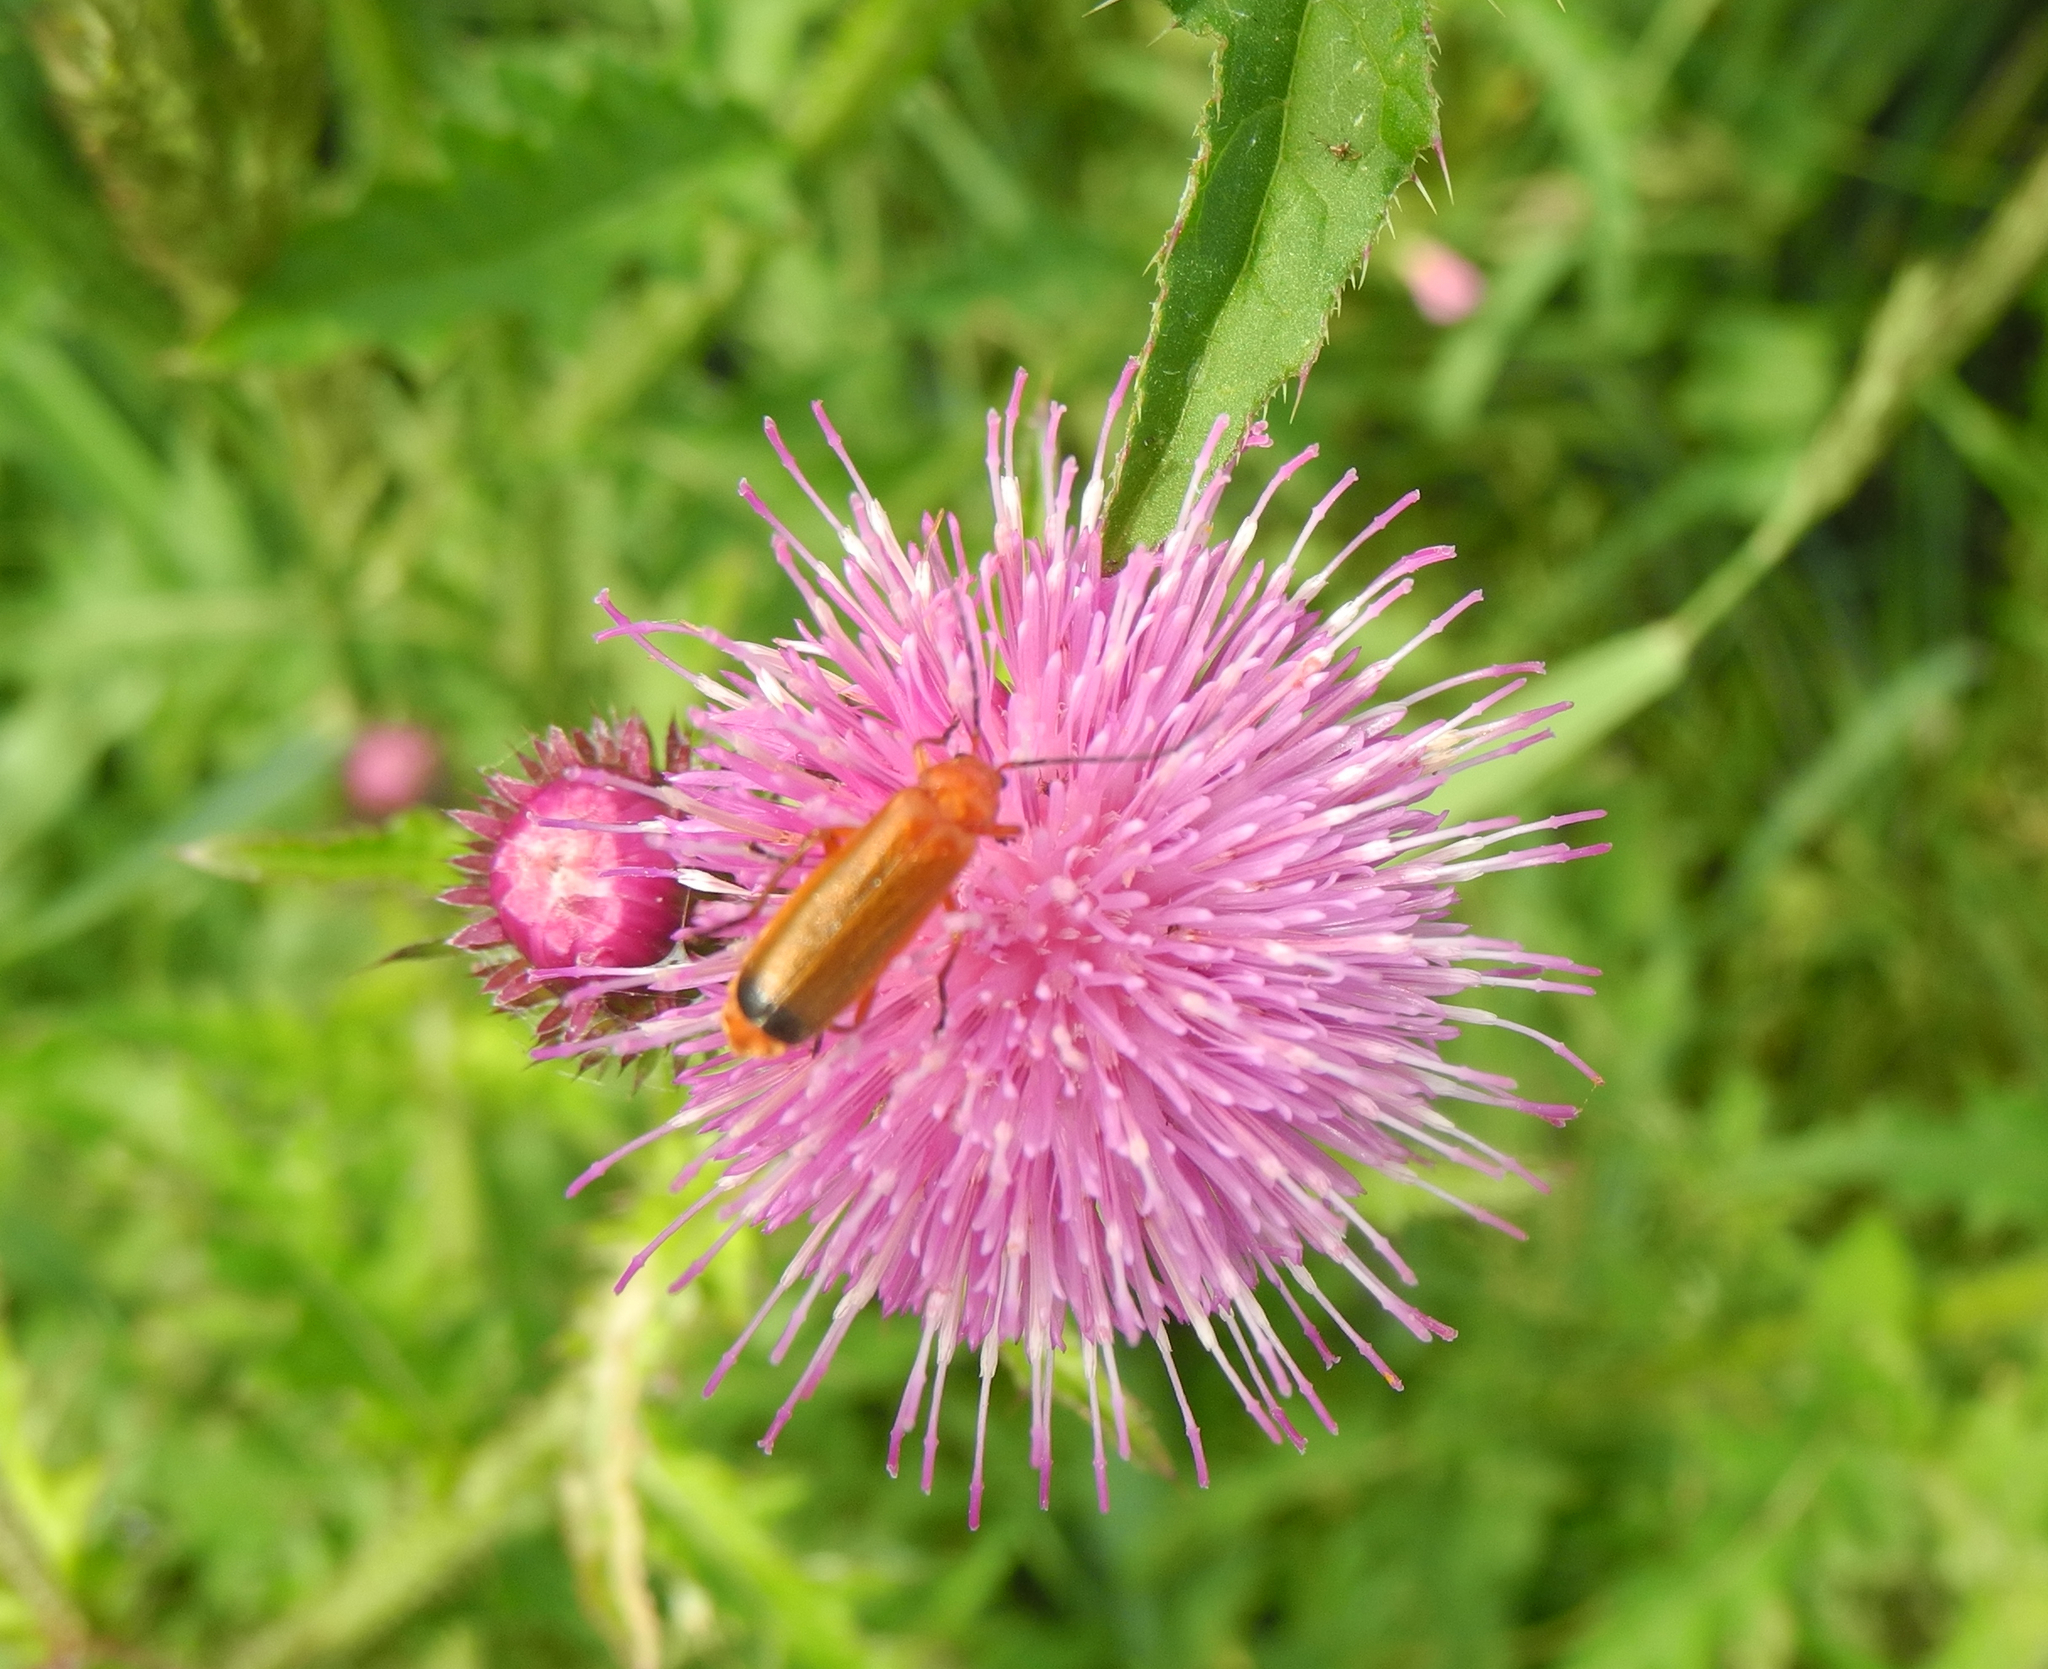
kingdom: Animalia
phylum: Arthropoda
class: Insecta
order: Coleoptera
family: Cantharidae
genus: Rhagonycha
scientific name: Rhagonycha fulva
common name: Common red soldier beetle
